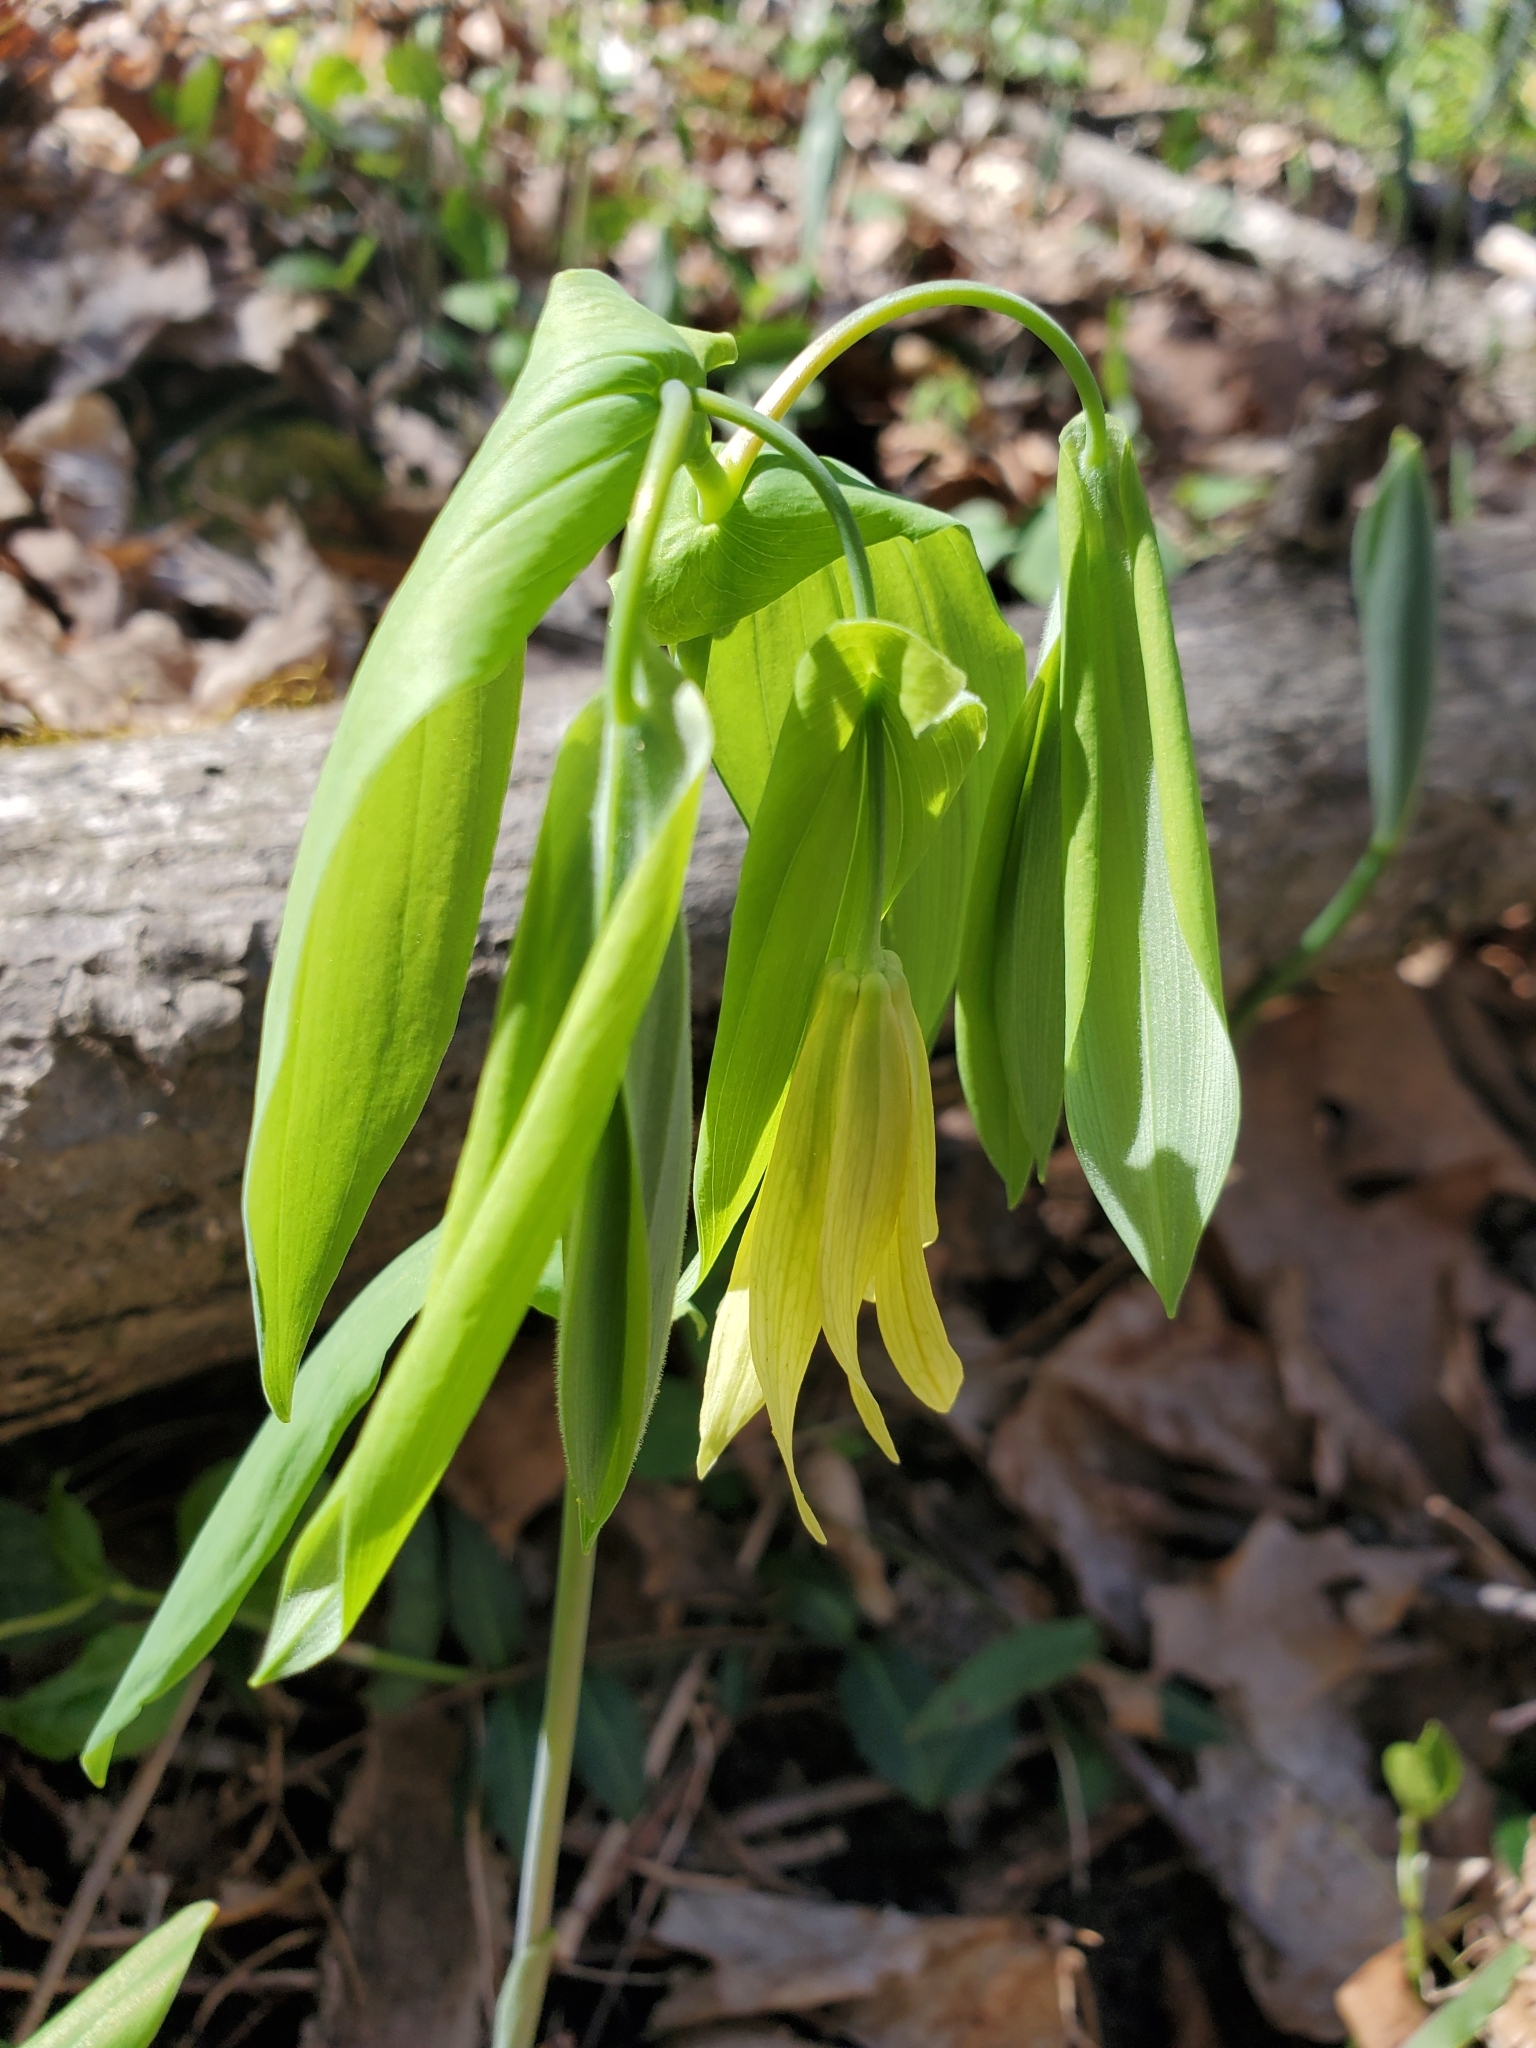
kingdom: Plantae
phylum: Tracheophyta
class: Liliopsida
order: Liliales
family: Colchicaceae
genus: Uvularia
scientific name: Uvularia grandiflora
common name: Bellwort
